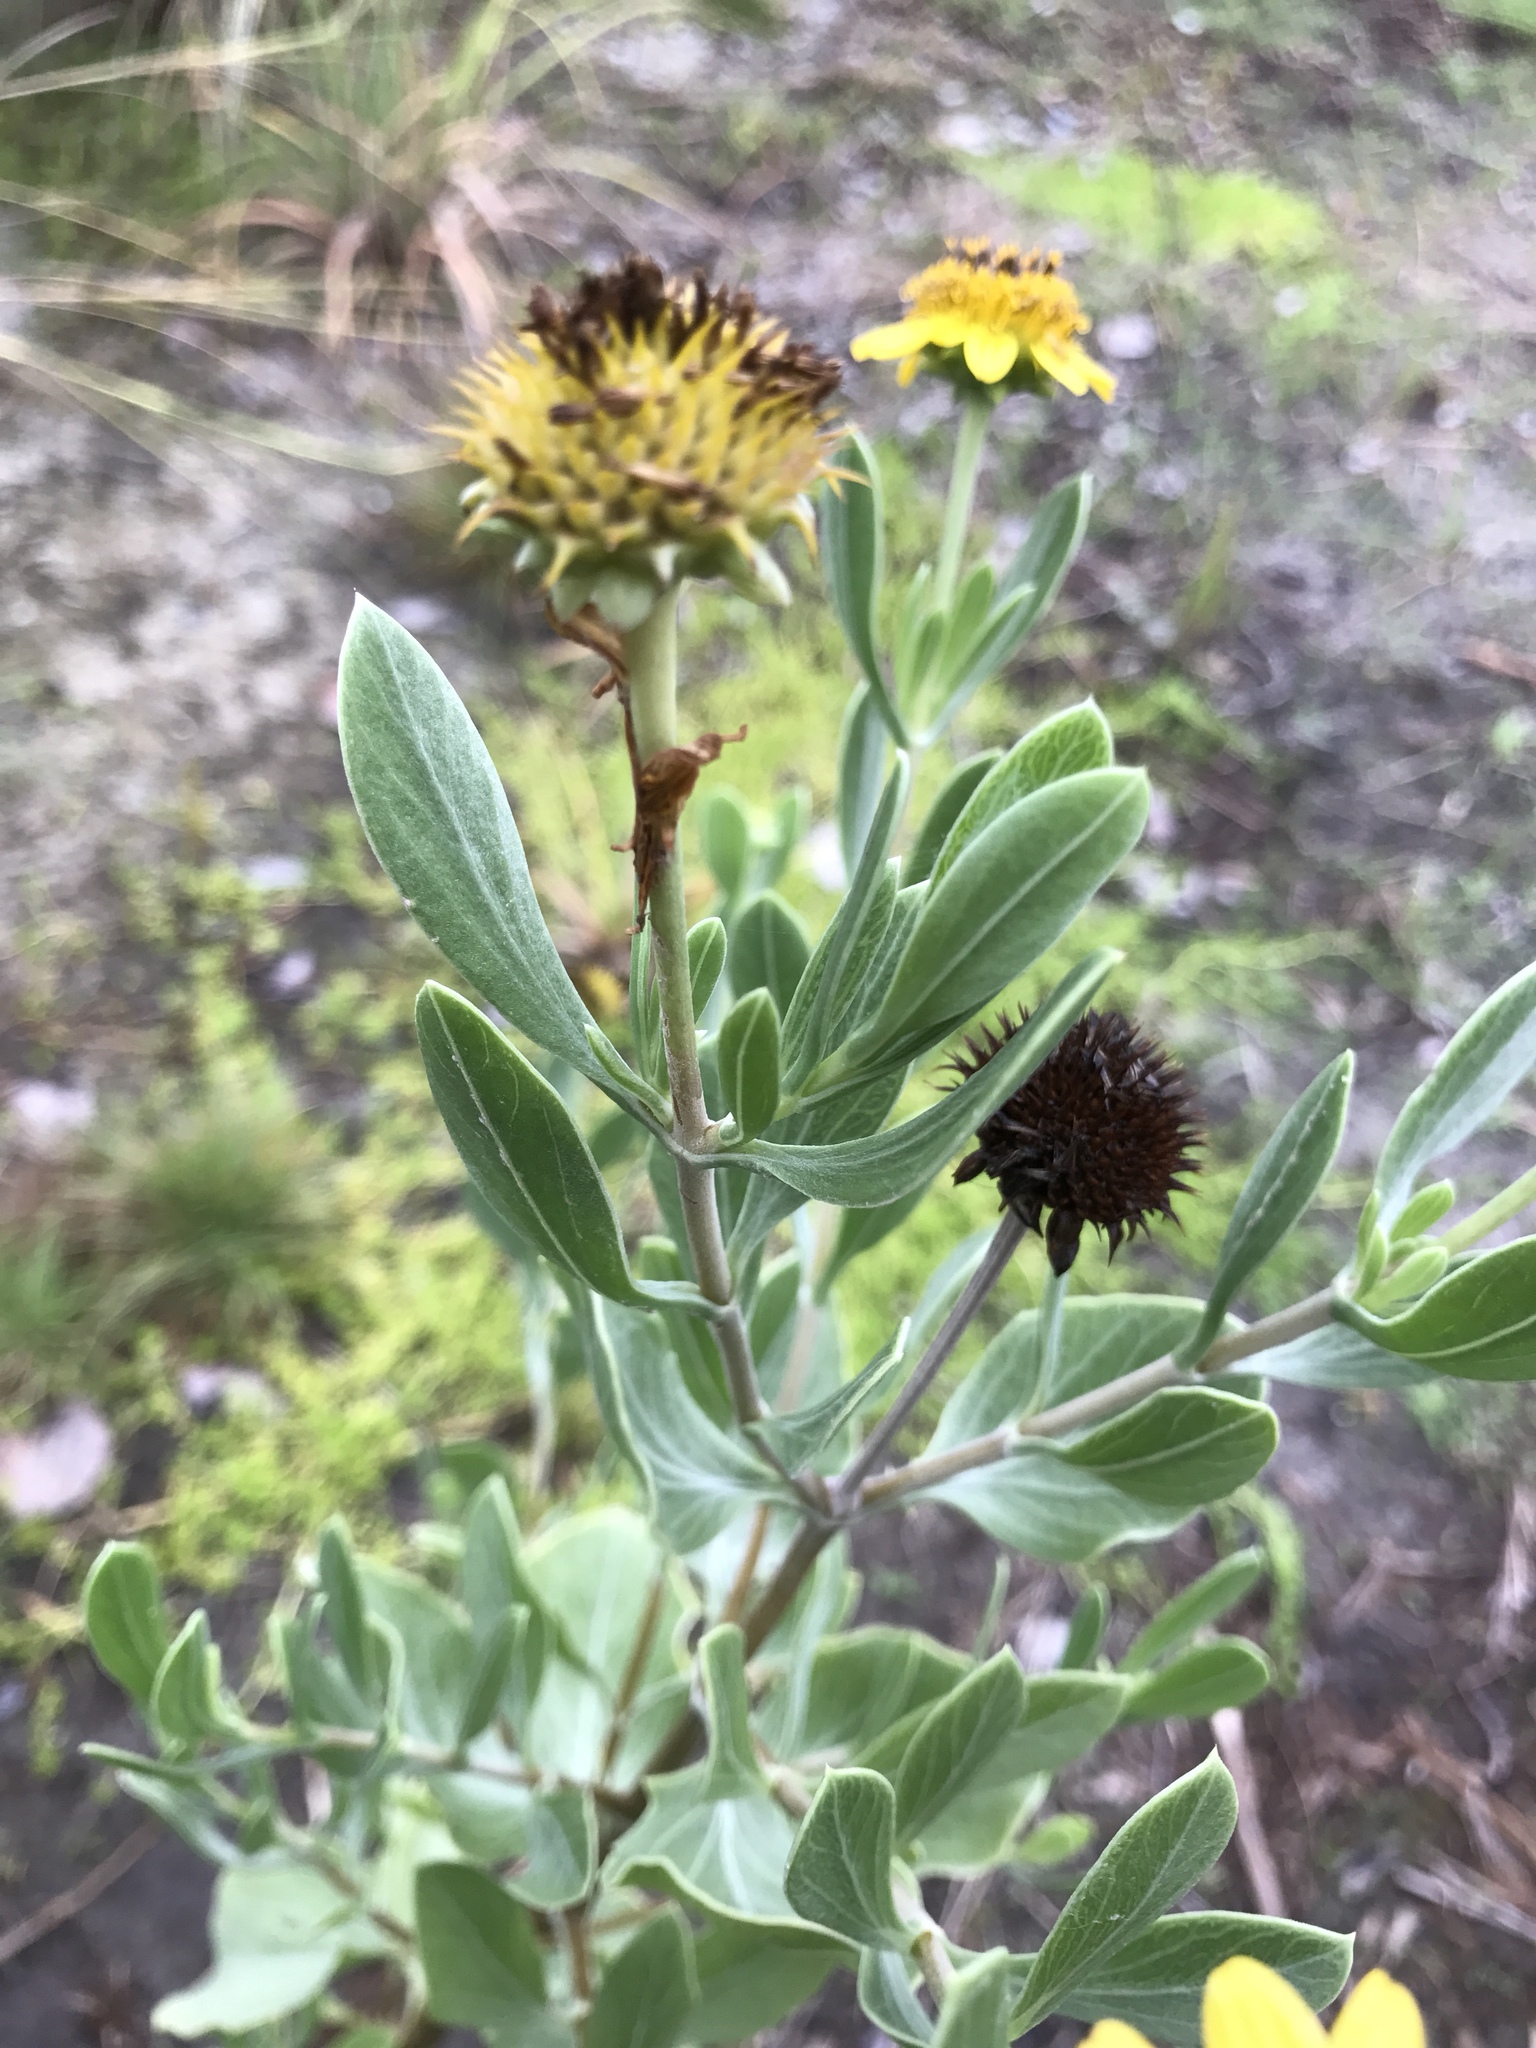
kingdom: Plantae
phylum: Tracheophyta
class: Magnoliopsida
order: Asterales
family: Asteraceae
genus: Borrichia
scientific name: Borrichia frutescens
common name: Sea oxeye
